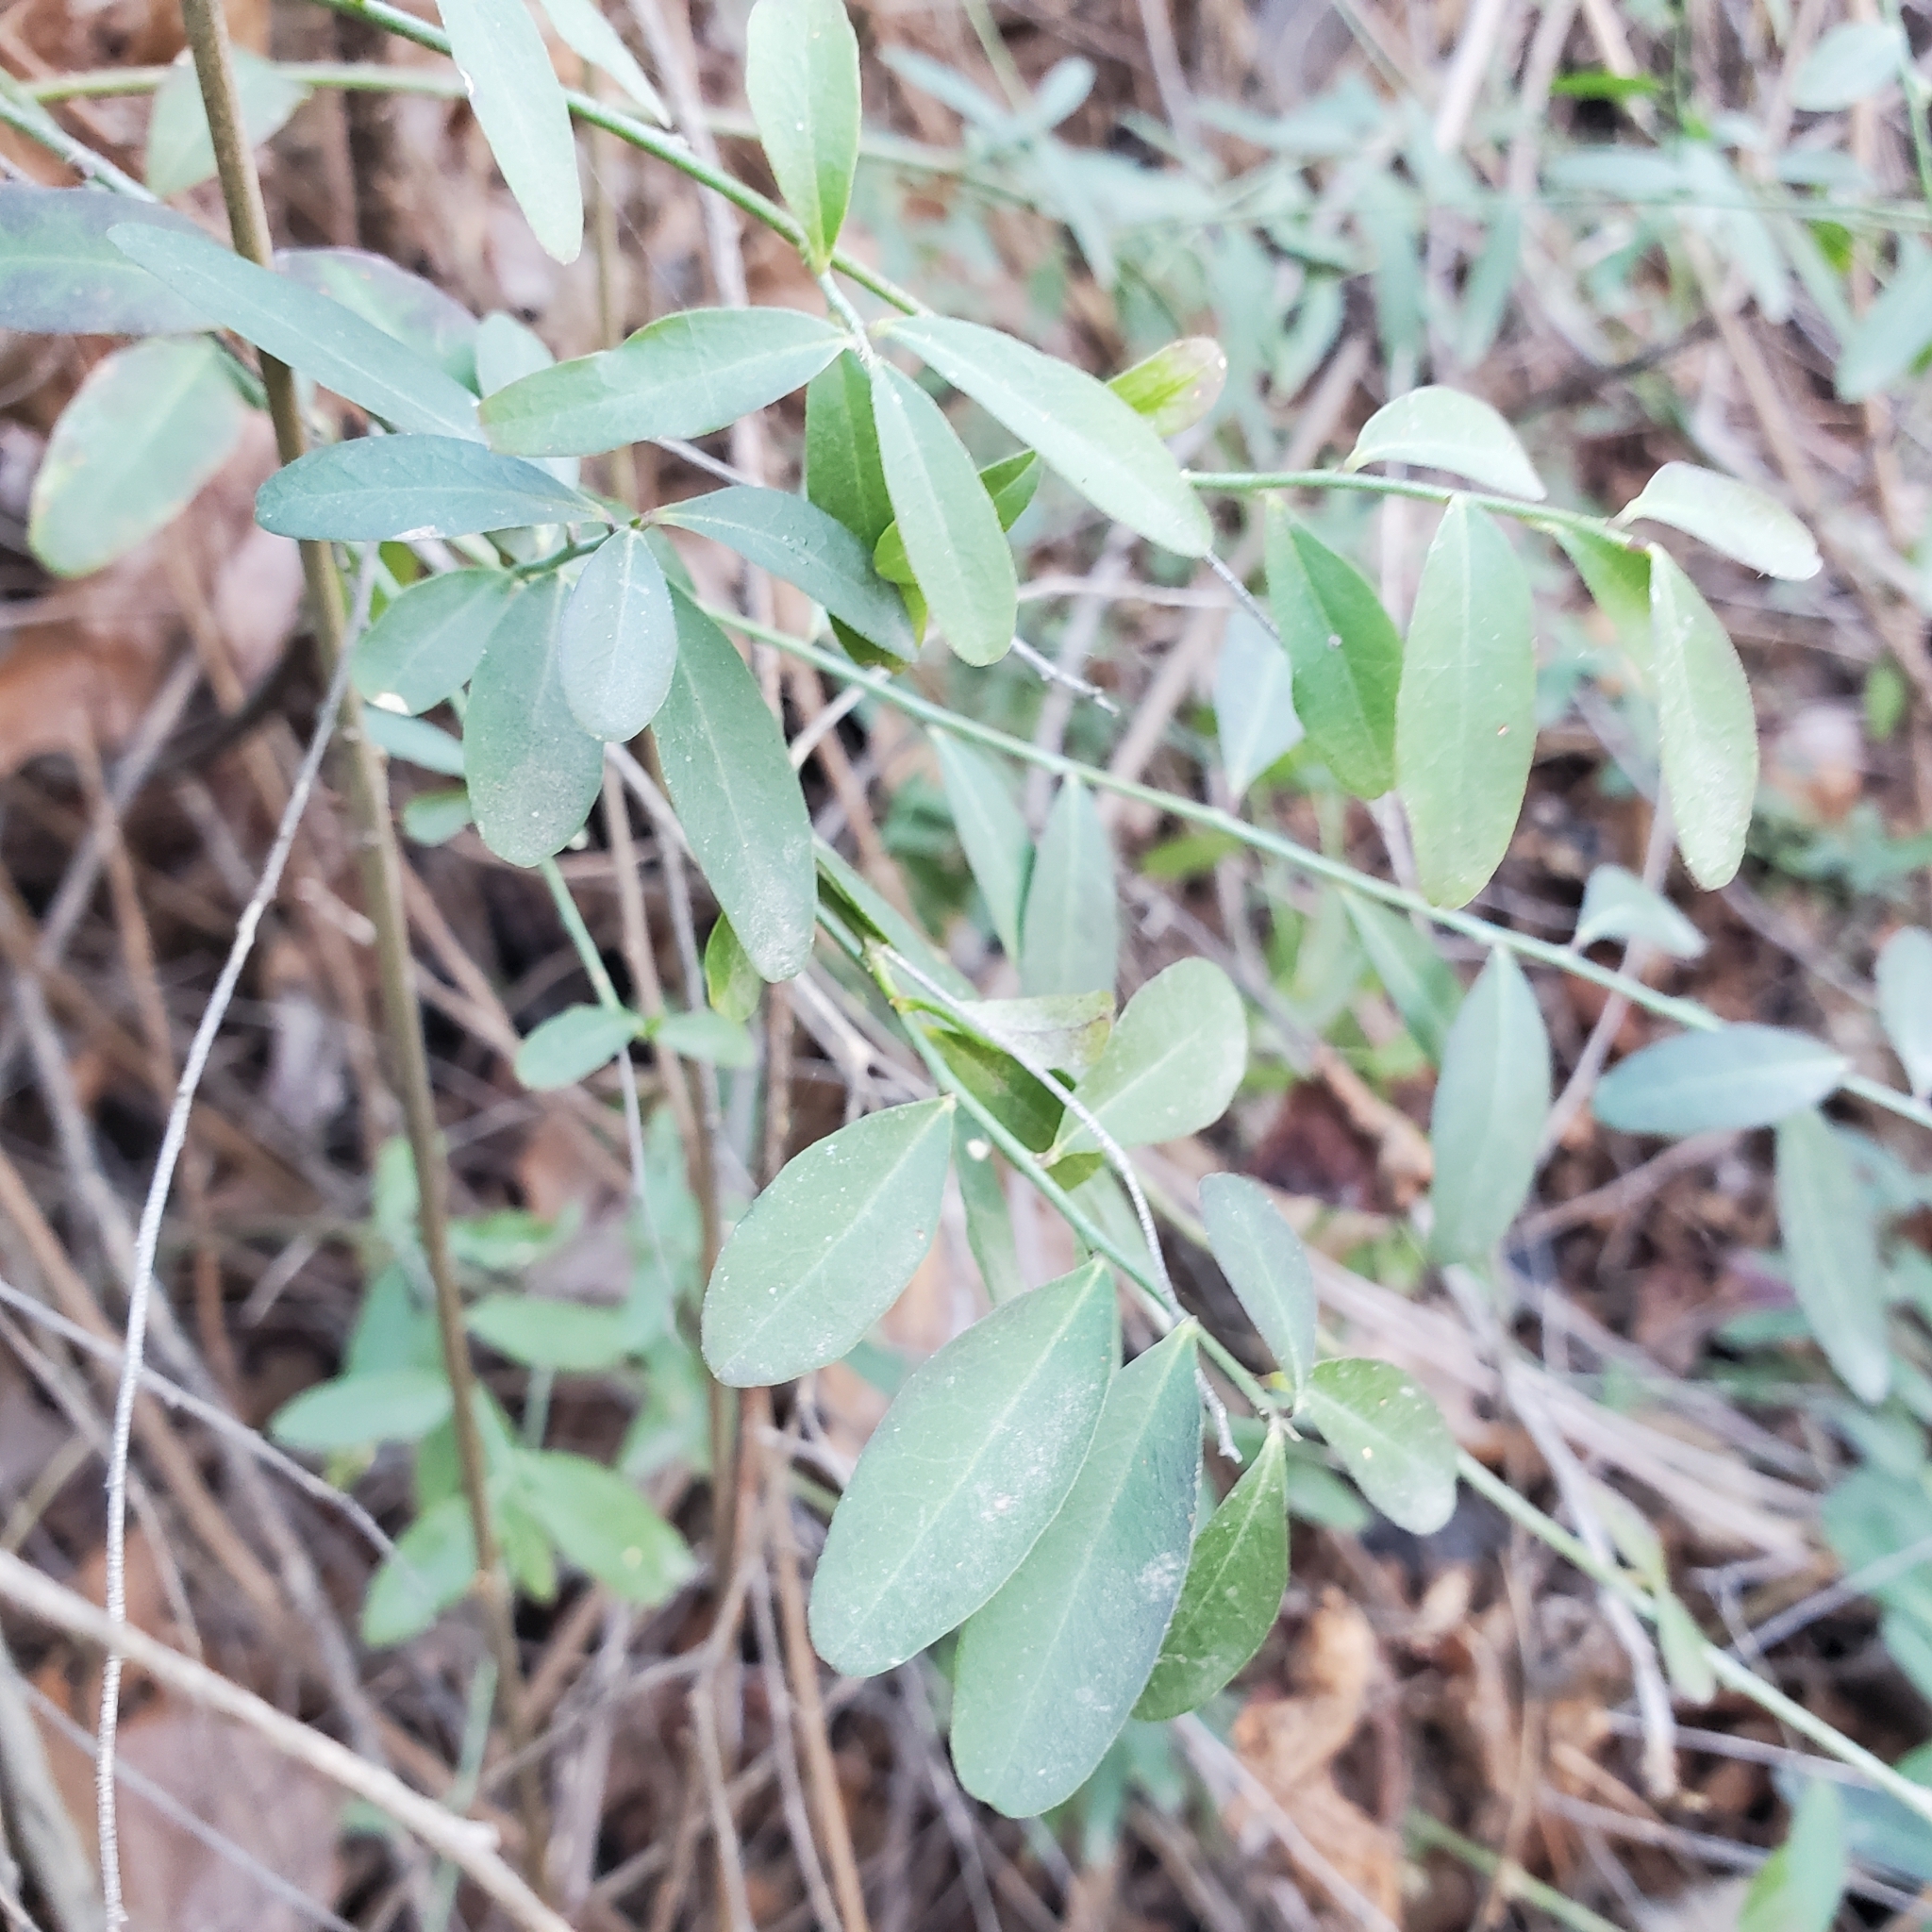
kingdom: Plantae
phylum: Tracheophyta
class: Magnoliopsida
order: Fabales
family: Polygalaceae
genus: Rhinotropis
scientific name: Rhinotropis cornuta
